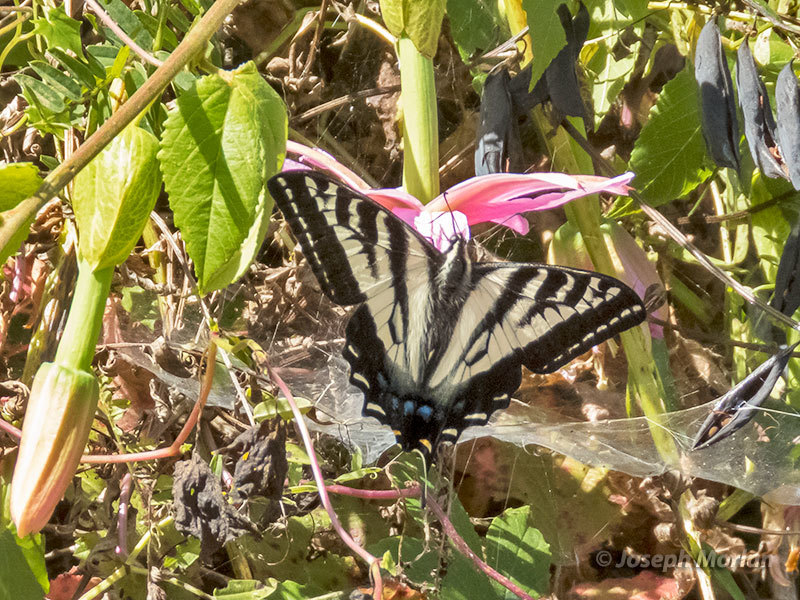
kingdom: Animalia
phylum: Arthropoda
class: Insecta
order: Lepidoptera
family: Papilionidae
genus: Papilio
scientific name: Papilio eurymedon
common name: Pale tiger swallowtail
